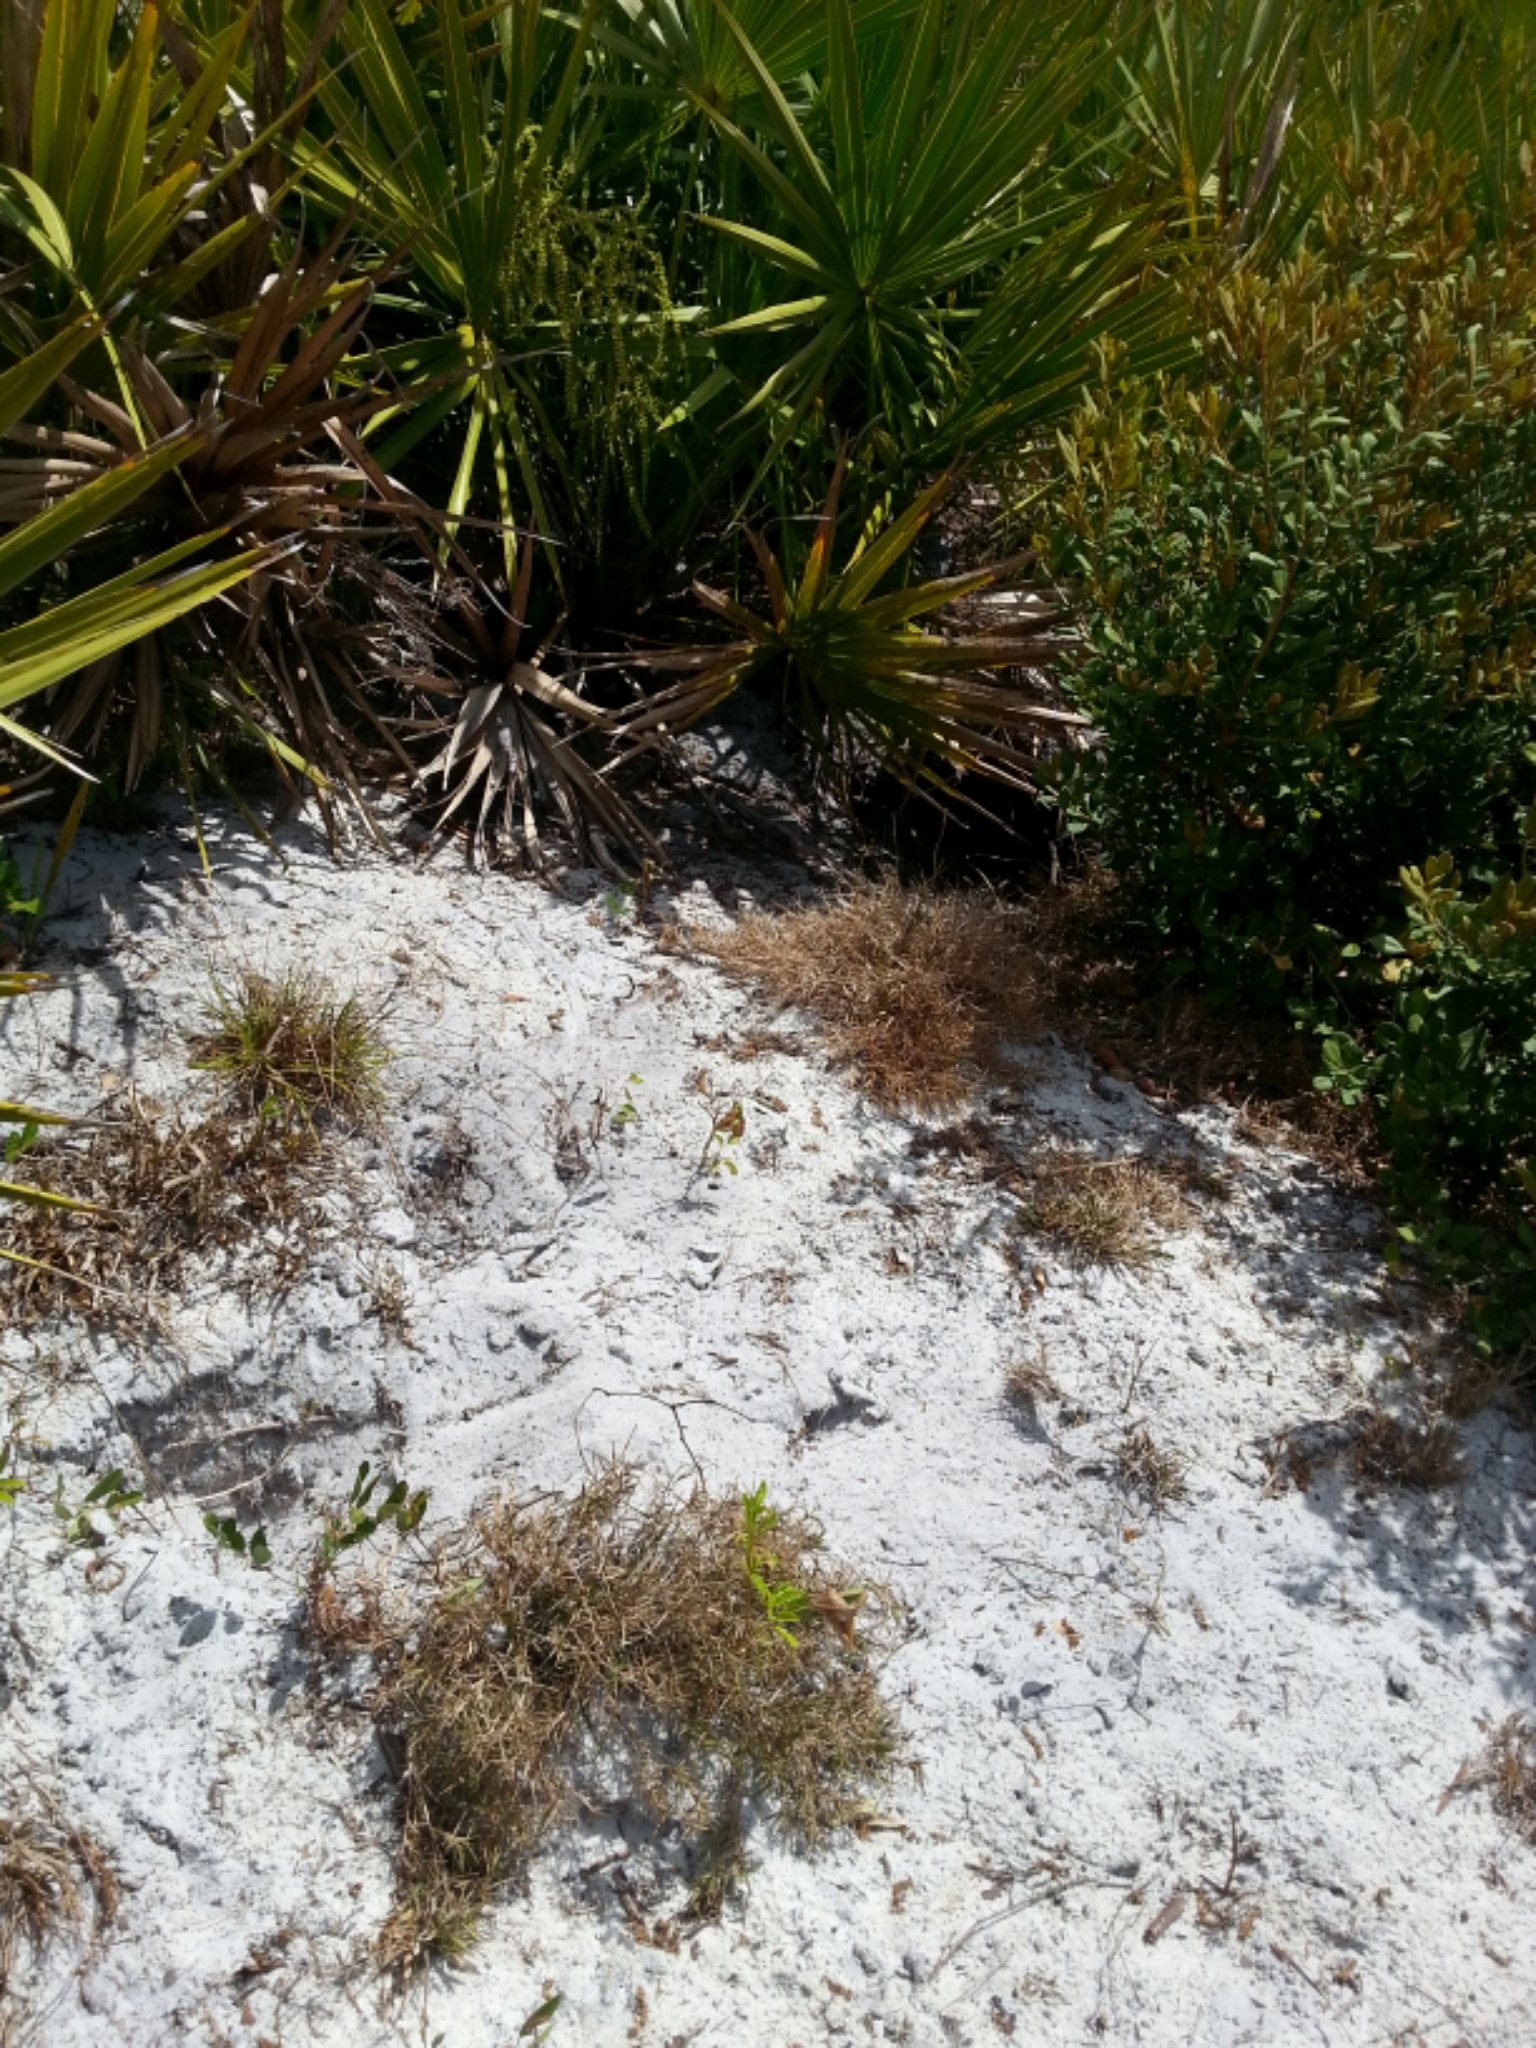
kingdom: Animalia
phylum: Chordata
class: Testudines
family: Testudinidae
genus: Gopherus
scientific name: Gopherus polyphemus
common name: Florida gopher tortoise
